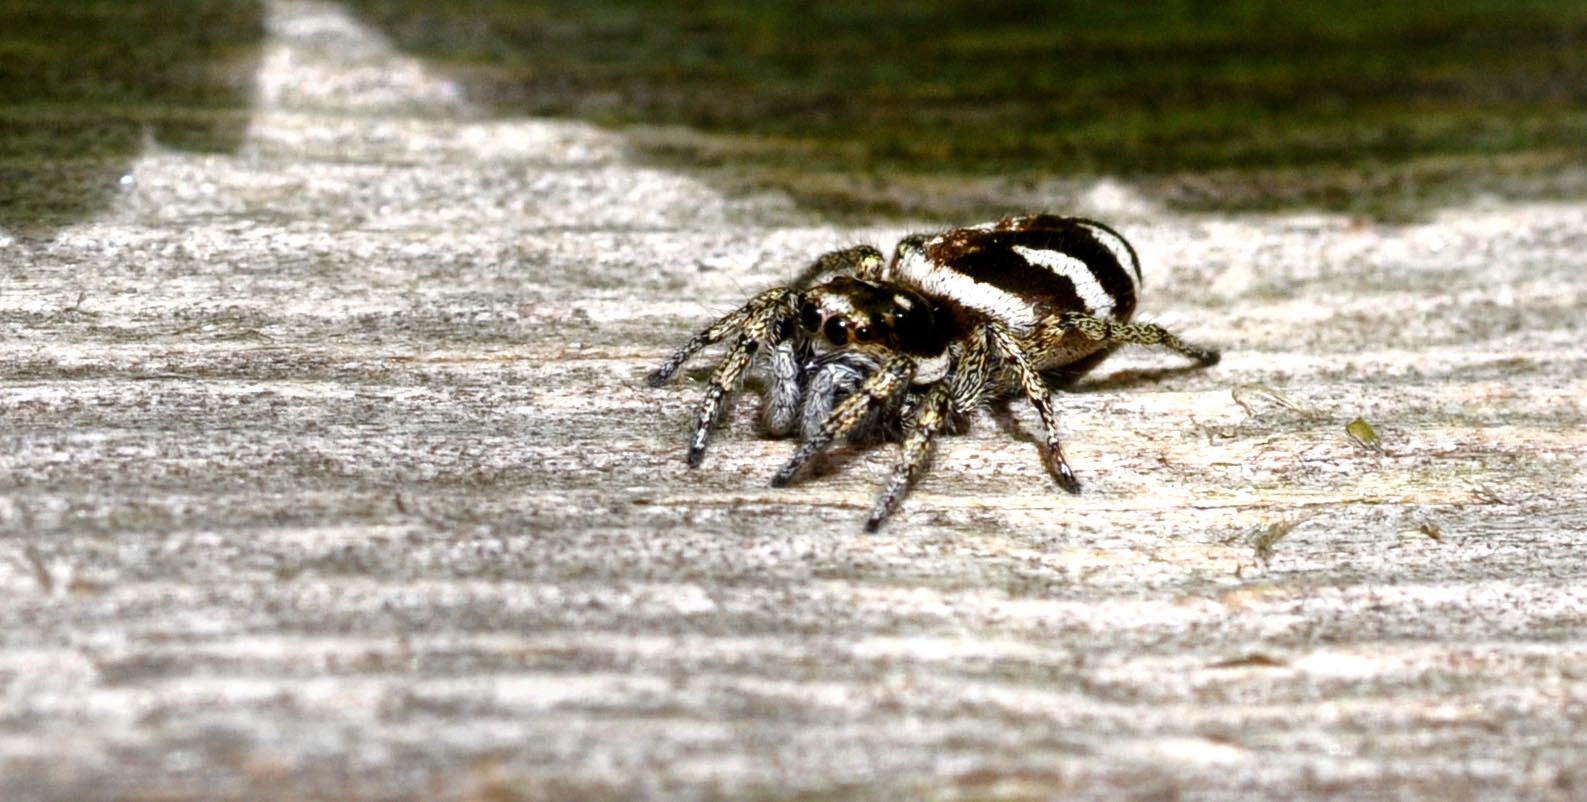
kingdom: Animalia
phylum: Arthropoda
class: Arachnida
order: Araneae
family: Salticidae
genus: Salticus
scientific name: Salticus scenicus
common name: Zebra jumper
